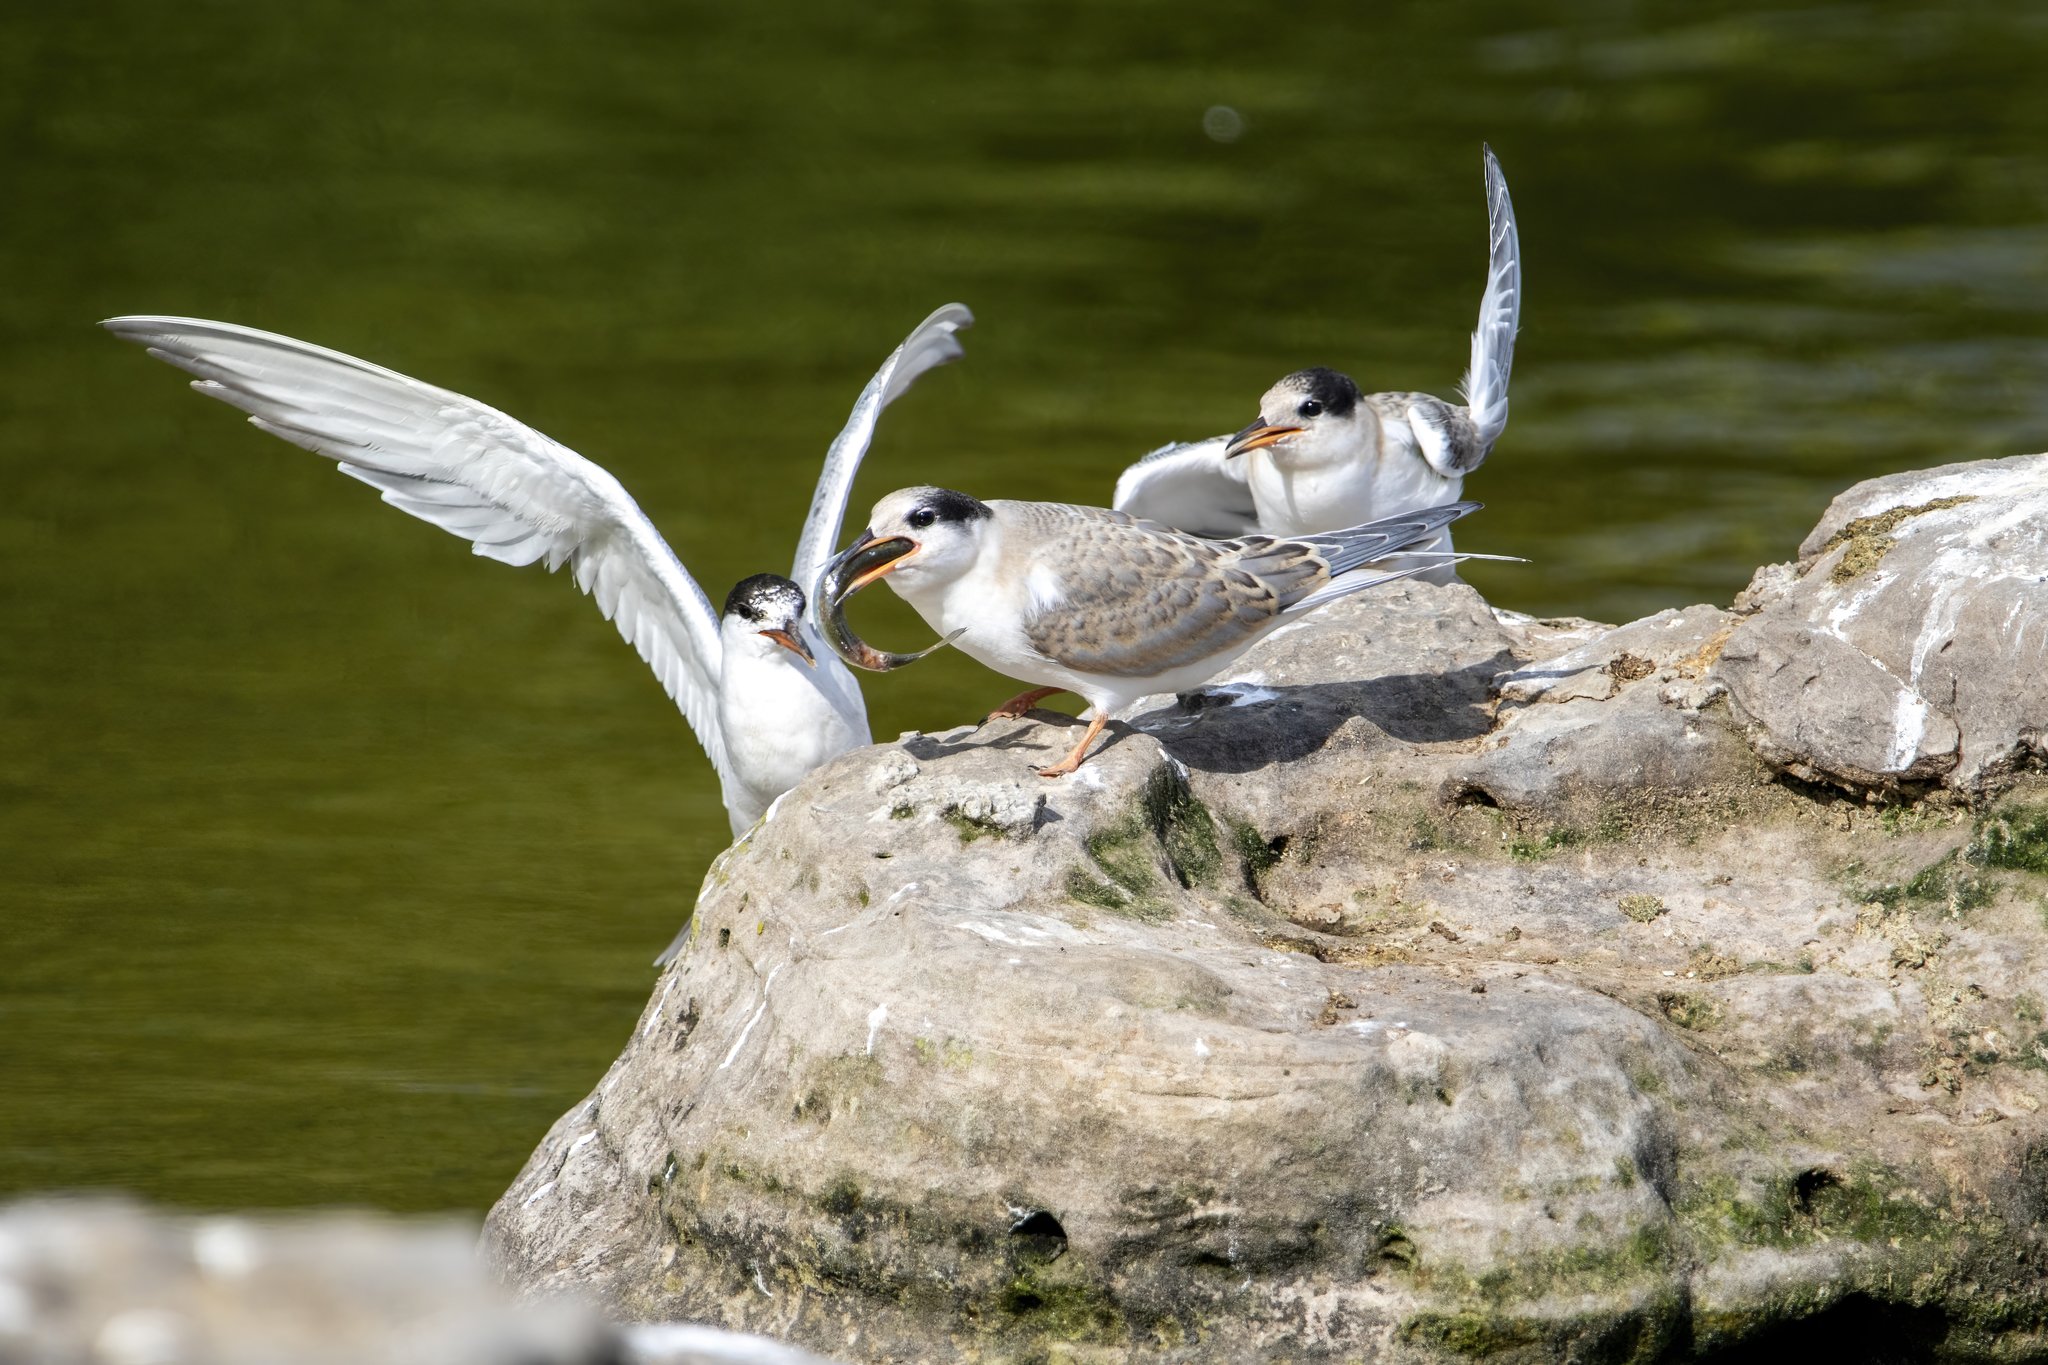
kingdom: Animalia
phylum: Chordata
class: Aves
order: Charadriiformes
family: Laridae
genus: Sterna
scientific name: Sterna hirundo
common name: Common tern
